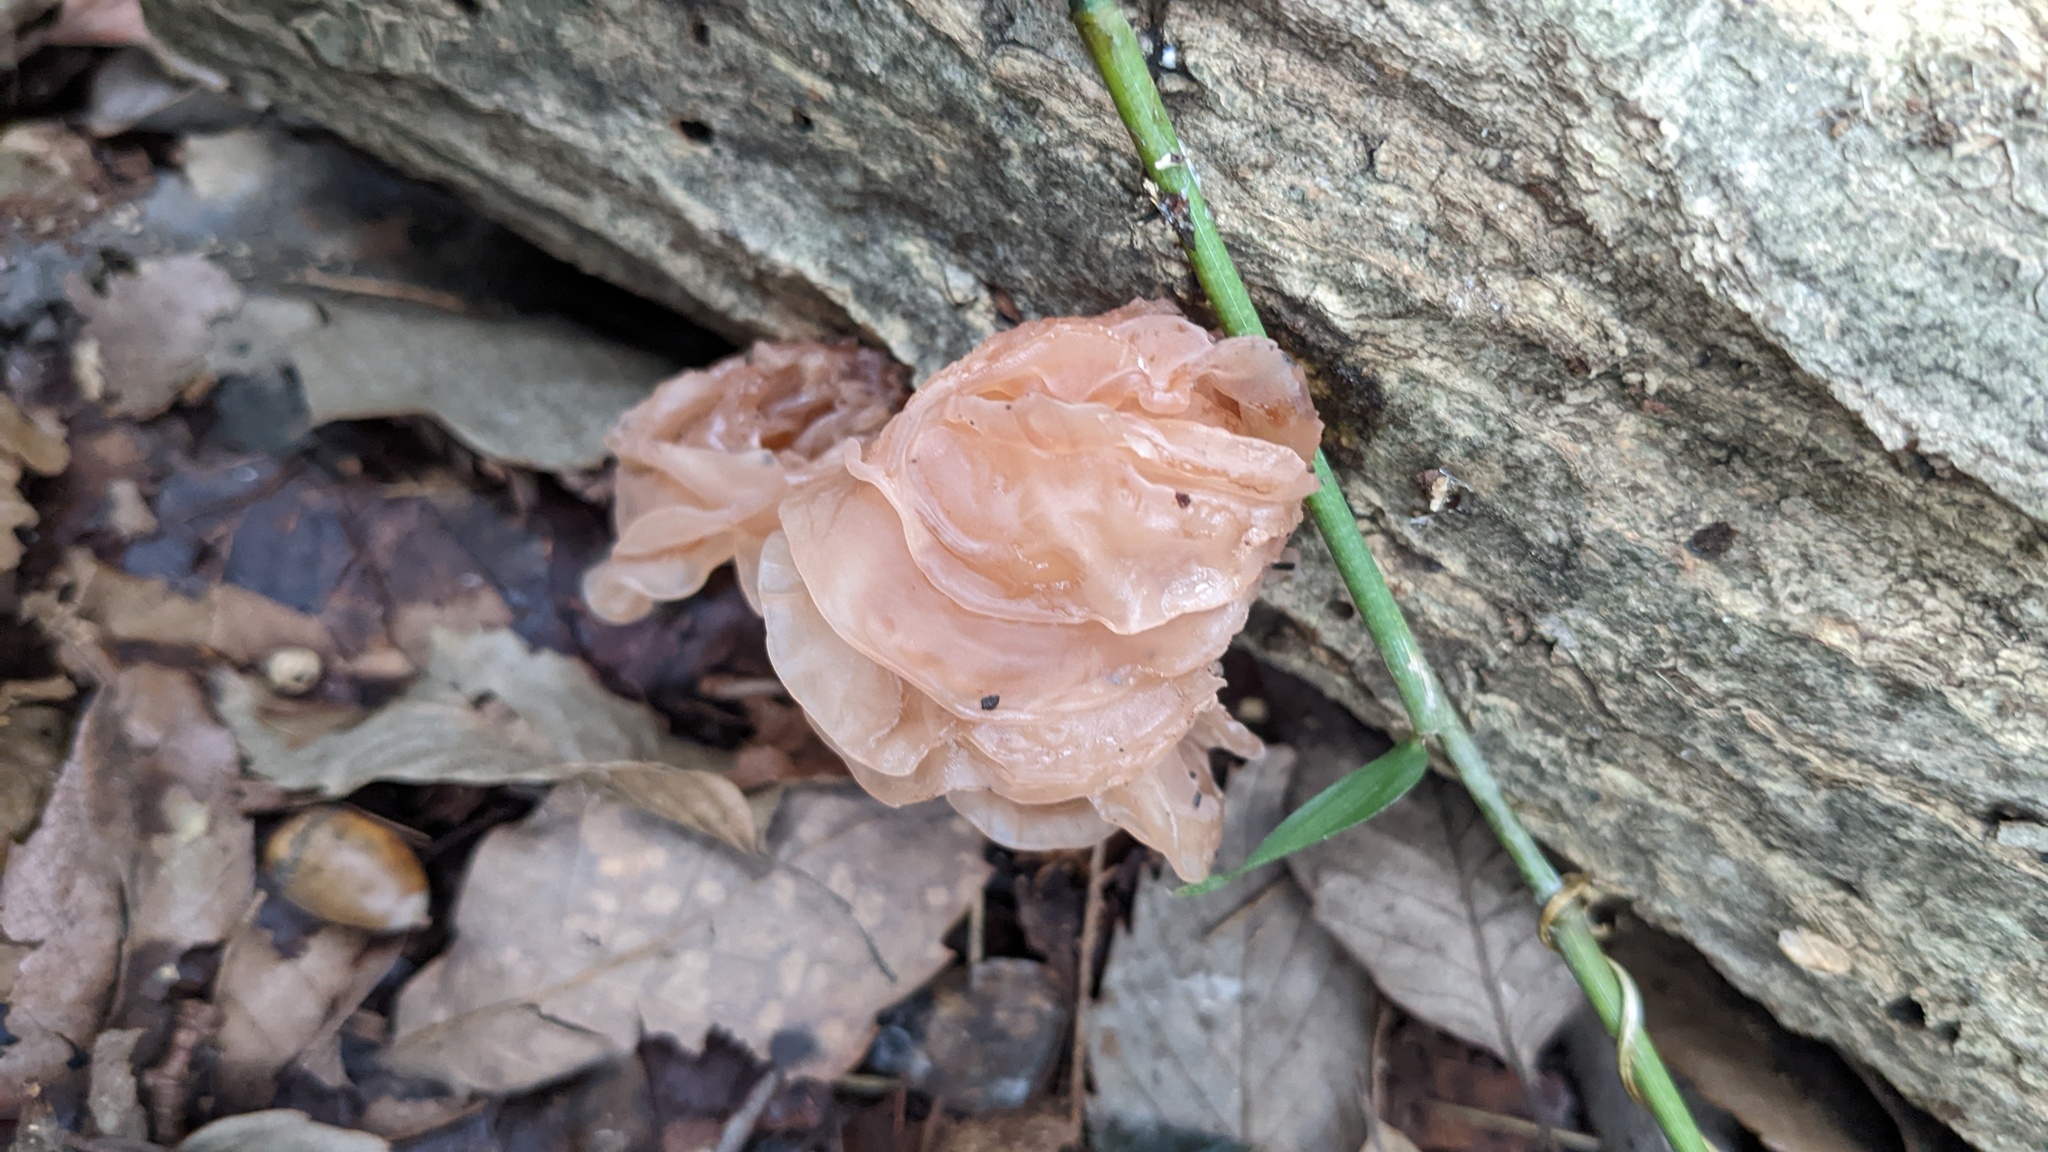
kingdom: Fungi
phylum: Basidiomycota
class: Tremellomycetes
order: Tremellales
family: Tremellaceae
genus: Phaeotremella
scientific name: Phaeotremella foliacea
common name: Leafy brain
